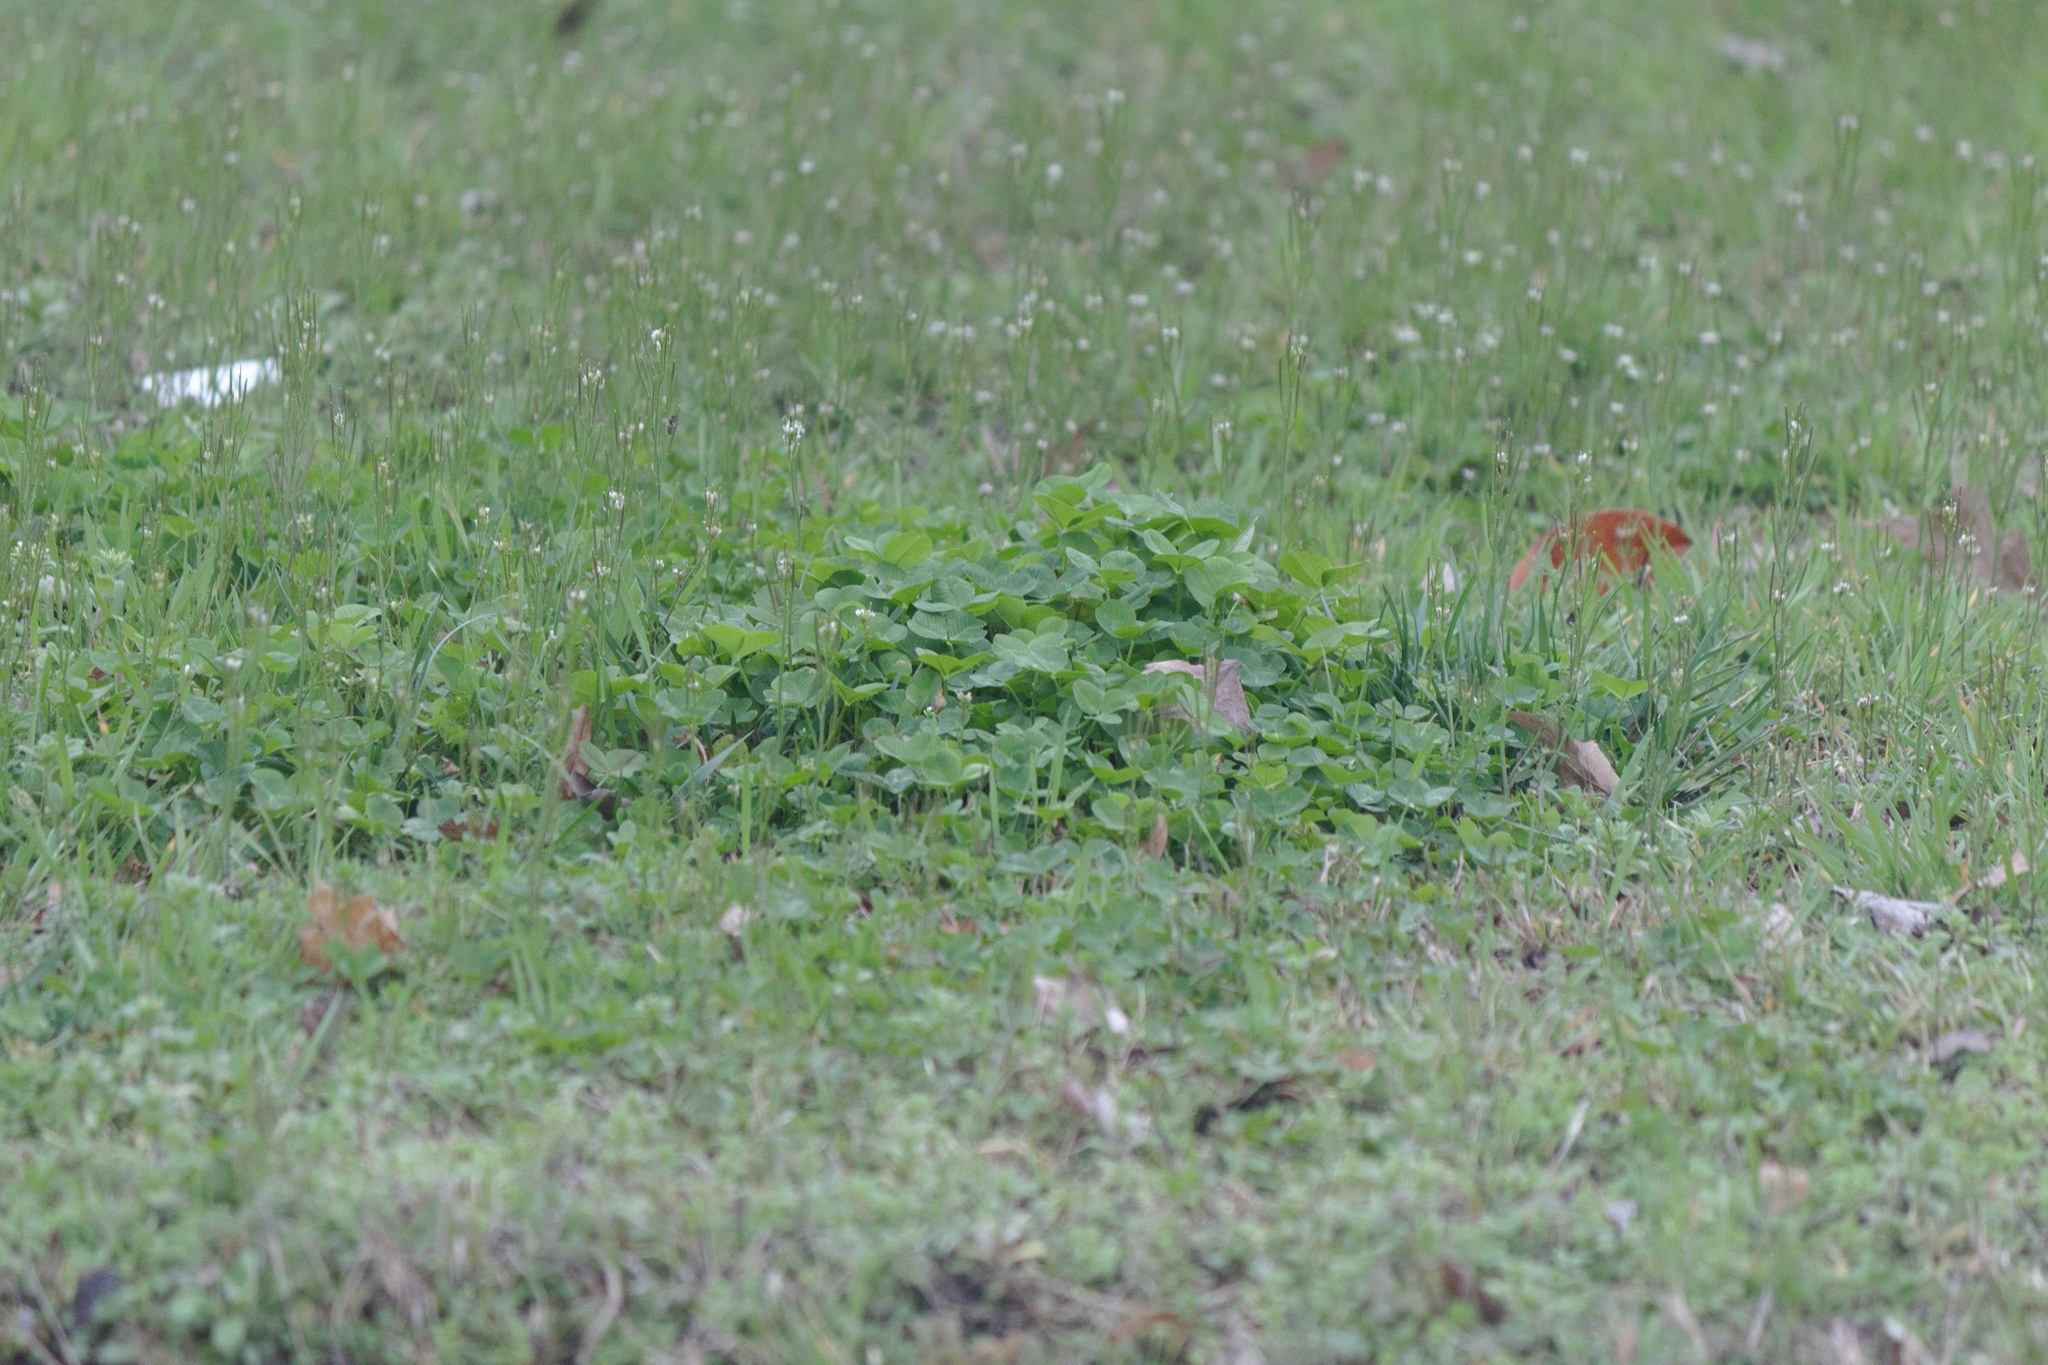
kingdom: Plantae
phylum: Tracheophyta
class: Magnoliopsida
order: Fabales
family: Fabaceae
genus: Trifolium
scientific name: Trifolium repens
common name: White clover
